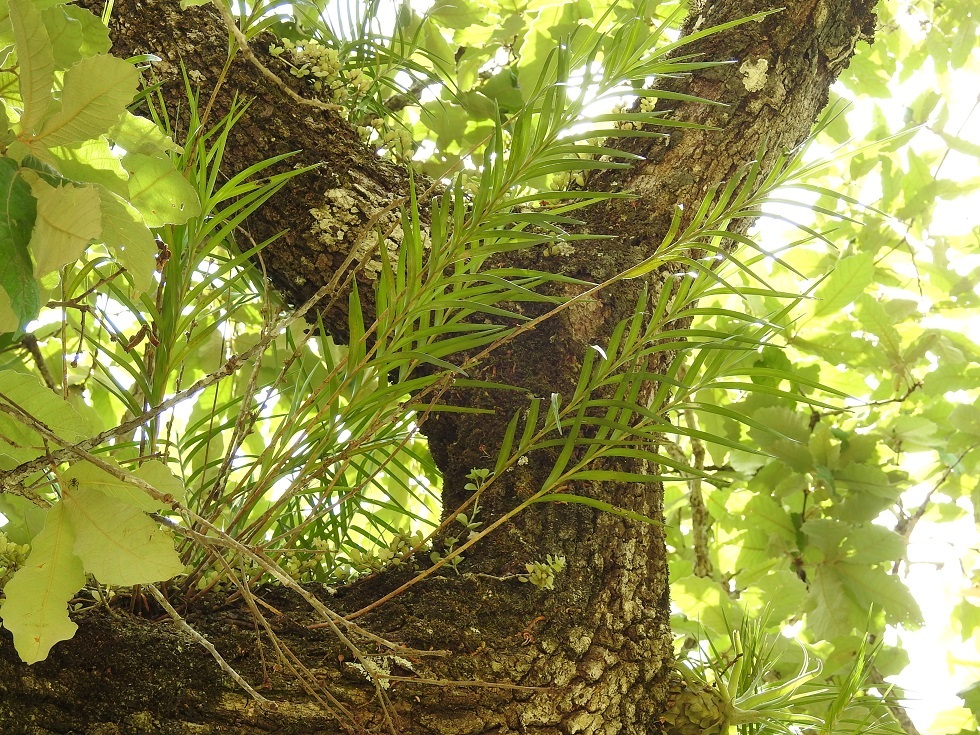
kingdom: Plantae
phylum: Tracheophyta
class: Liliopsida
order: Asparagales
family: Orchidaceae
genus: Nemaconia
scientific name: Nemaconia striata
